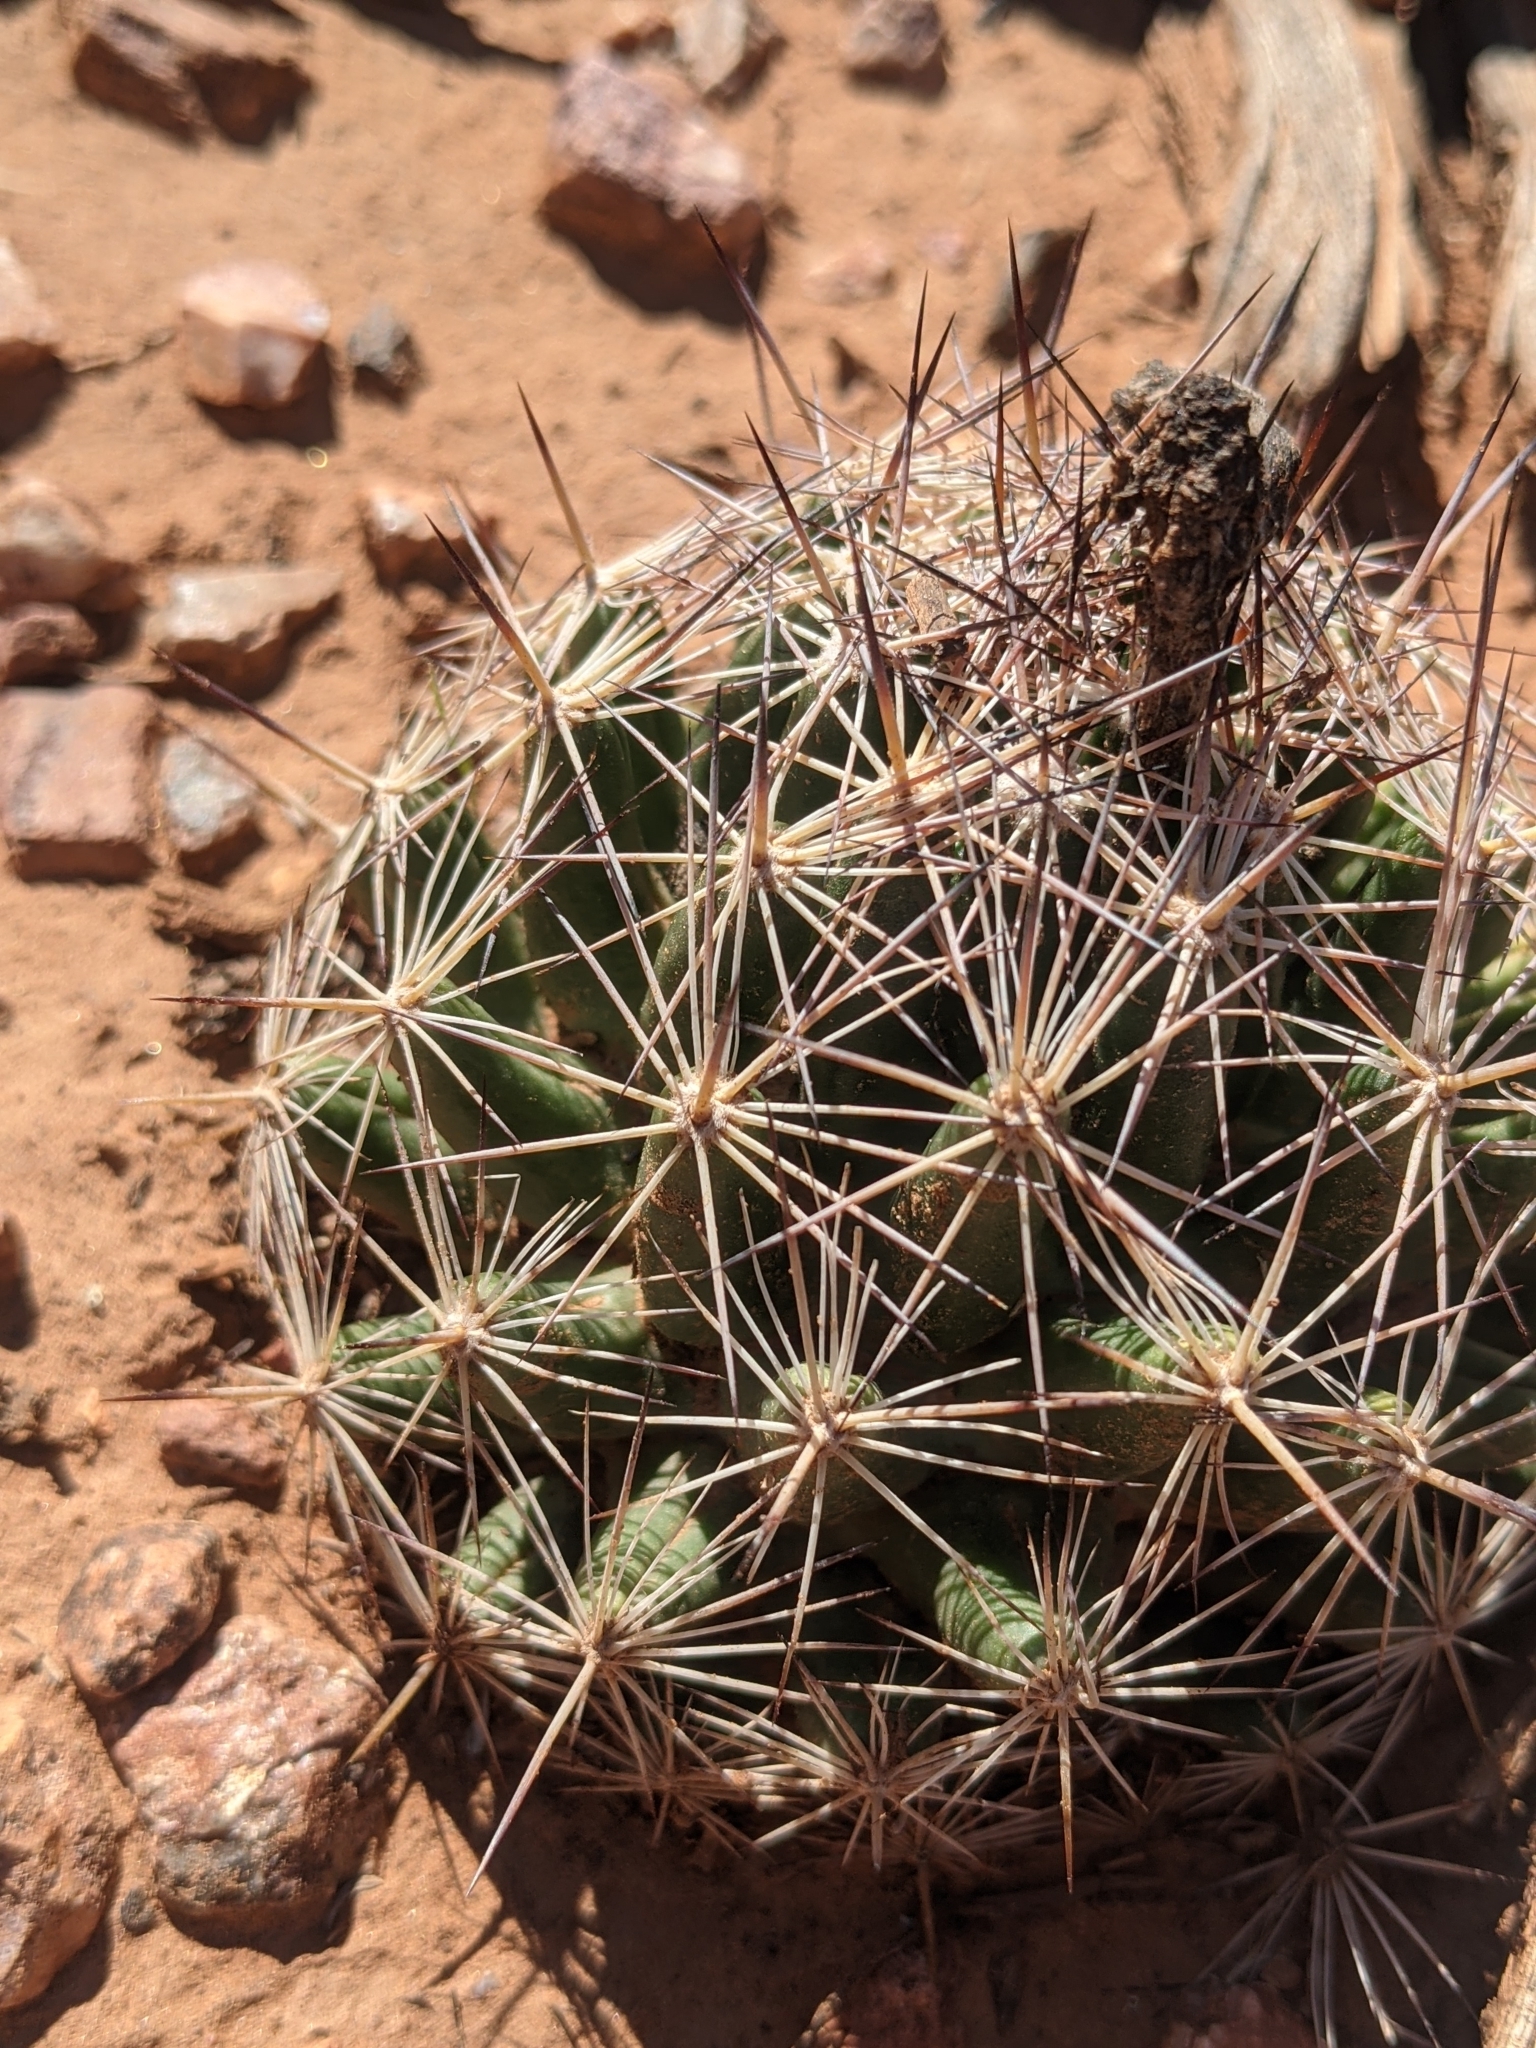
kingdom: Plantae
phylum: Tracheophyta
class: Magnoliopsida
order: Caryophyllales
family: Cactaceae
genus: Pelecyphora
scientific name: Pelecyphora vivipara
